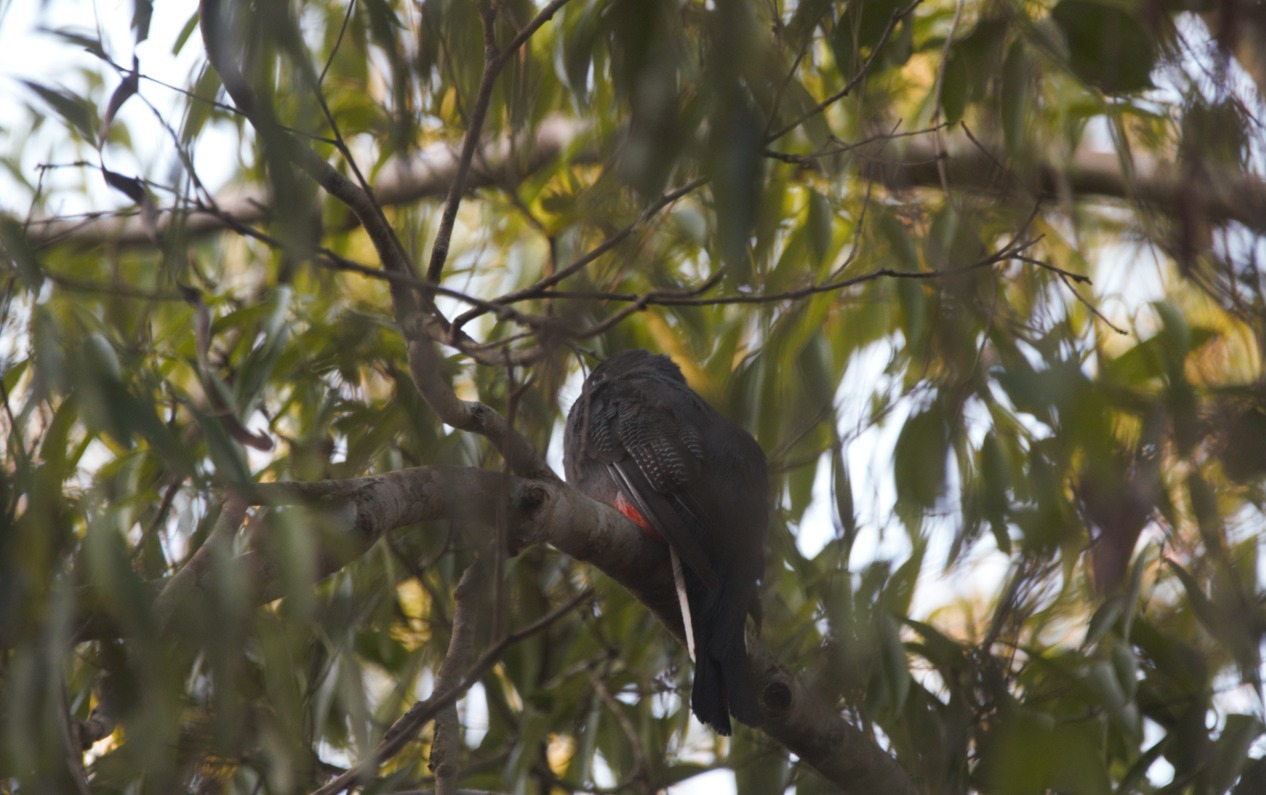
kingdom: Animalia
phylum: Chordata
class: Aves
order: Trogoniformes
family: Trogonidae
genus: Trogon
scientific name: Trogon surrucura
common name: Surucua trogon
